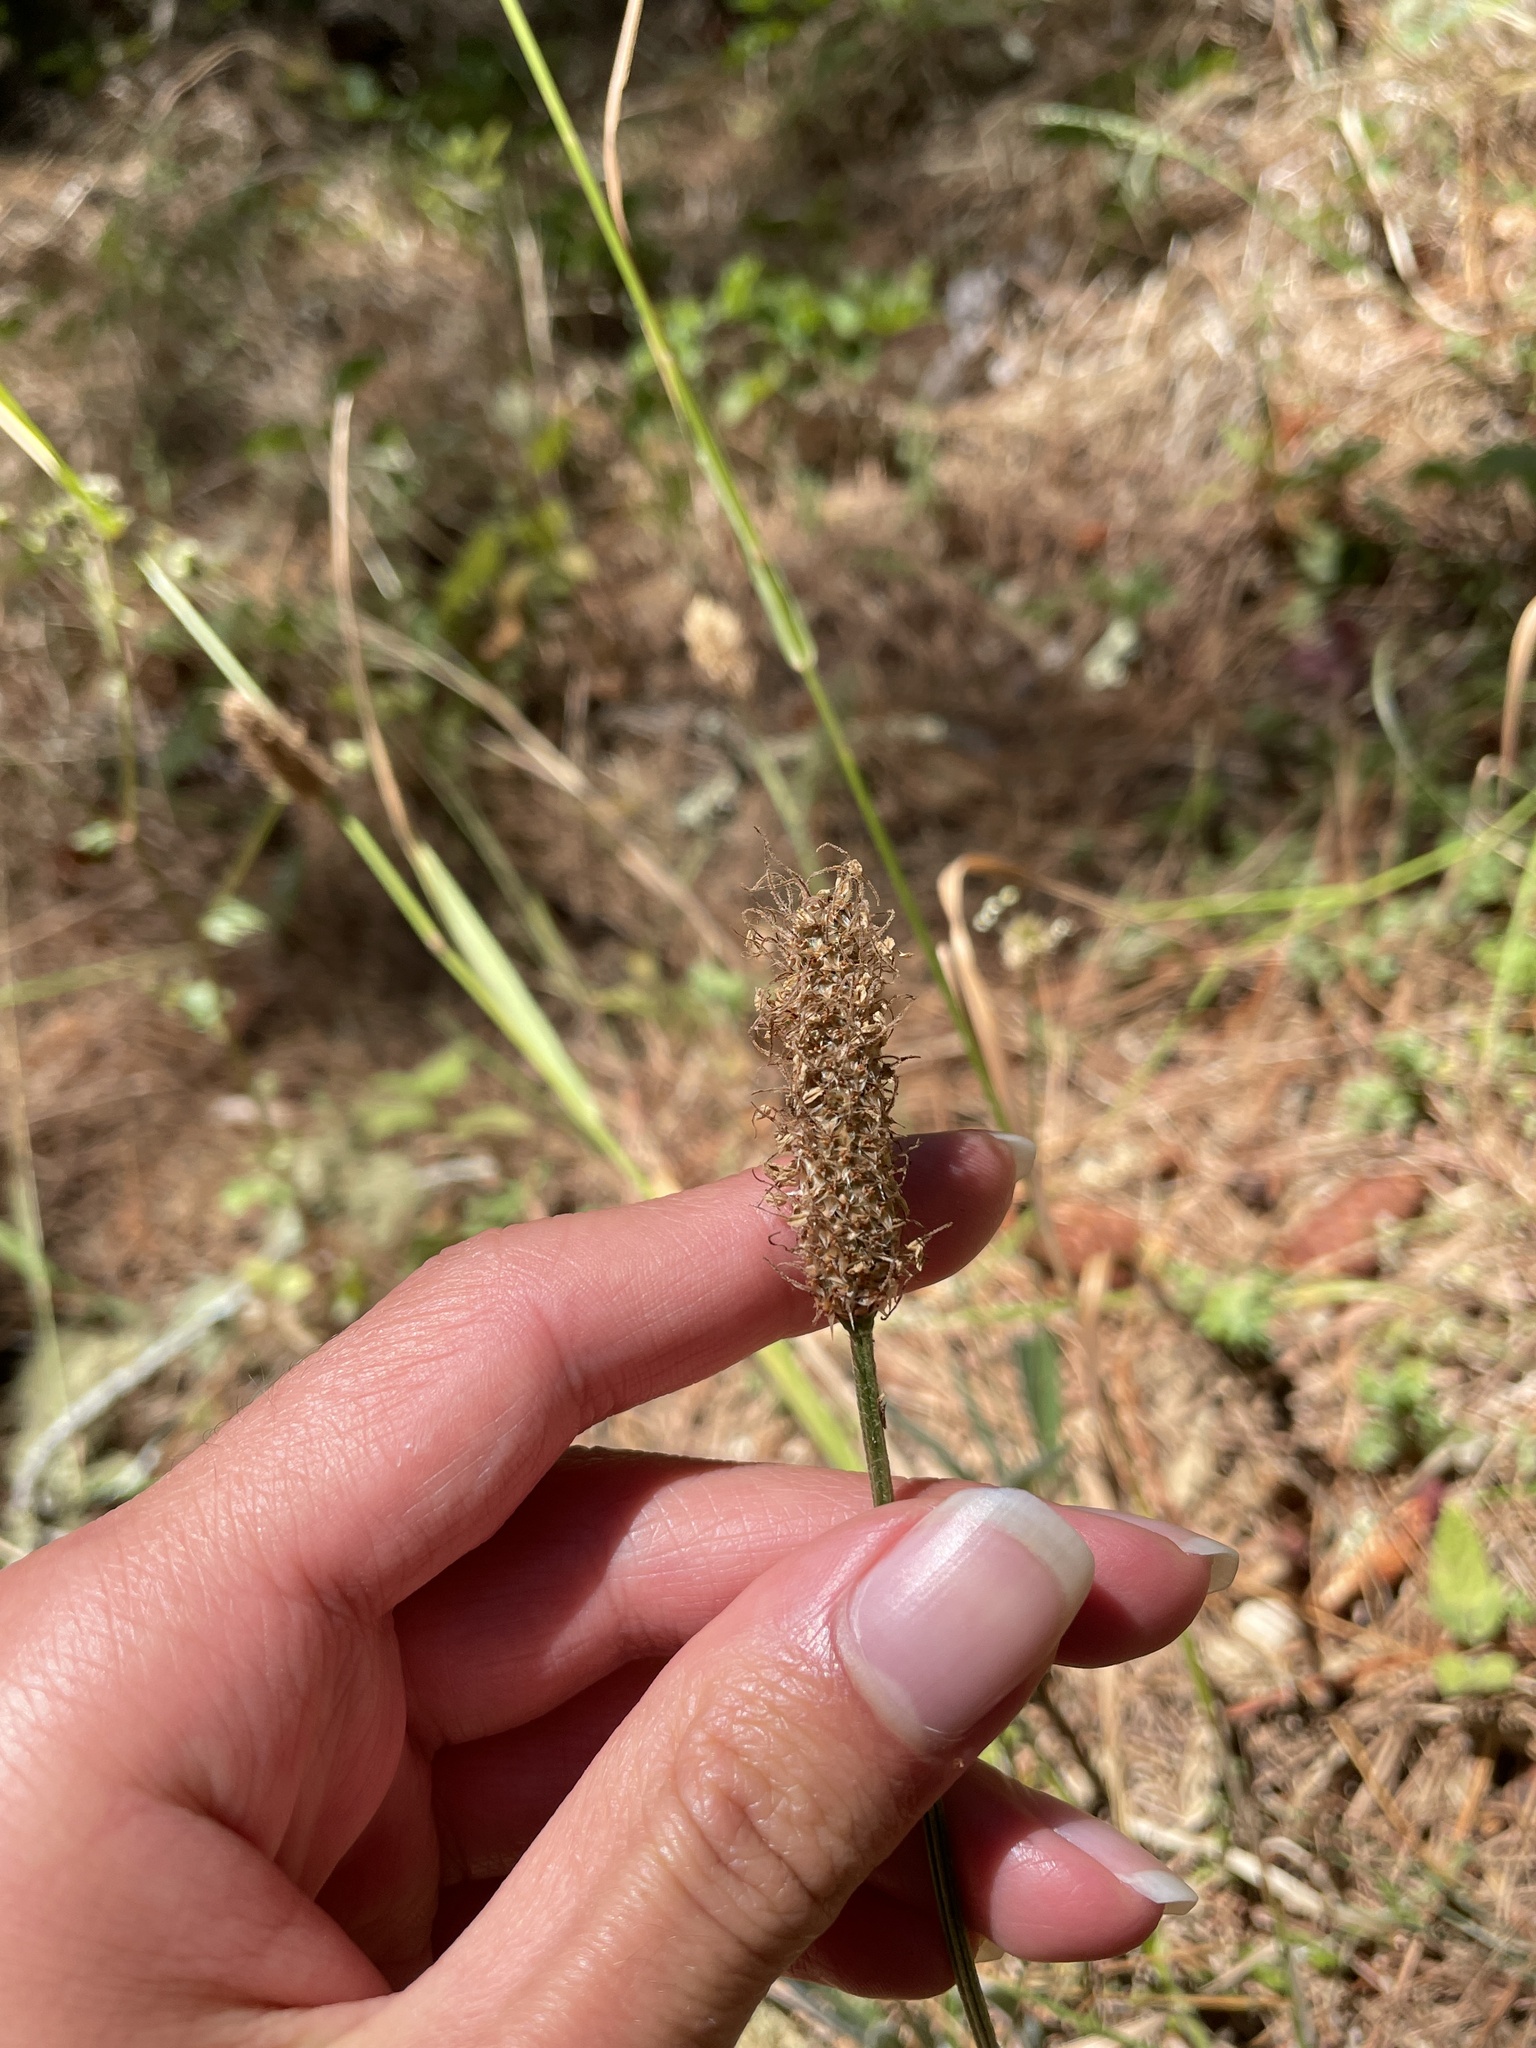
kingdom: Plantae
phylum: Tracheophyta
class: Magnoliopsida
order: Lamiales
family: Plantaginaceae
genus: Plantago
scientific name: Plantago lanceolata
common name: Ribwort plantain
